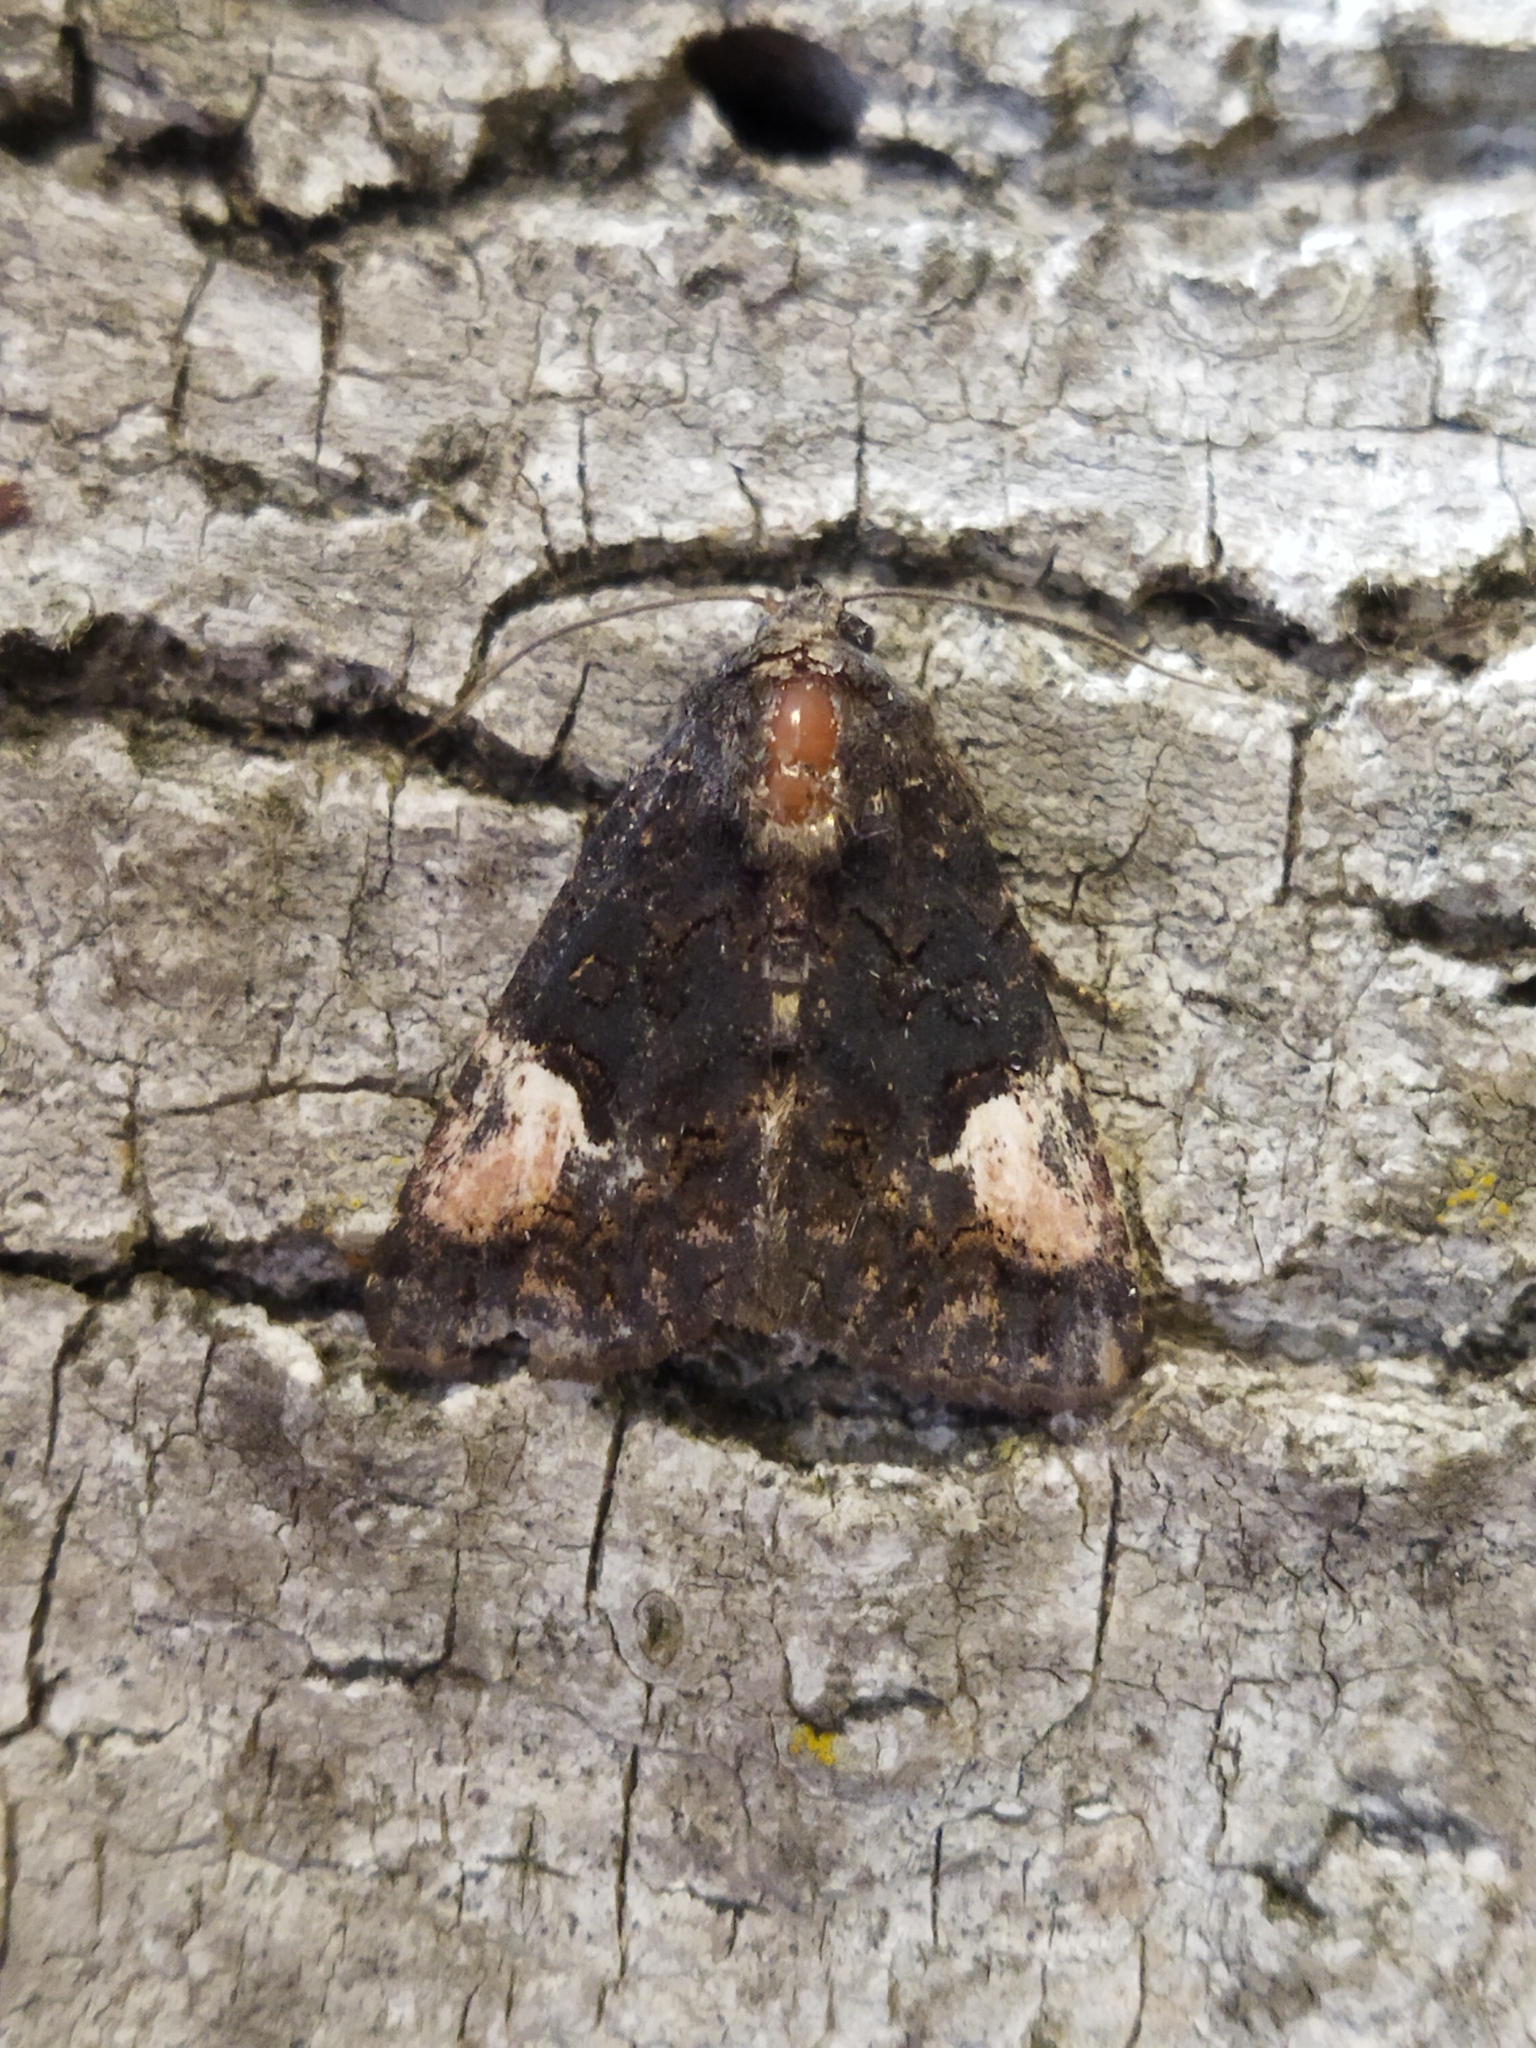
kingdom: Animalia
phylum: Arthropoda
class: Insecta
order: Lepidoptera
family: Noctuidae
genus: Aedia
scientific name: Aedia funesta
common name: The druid
